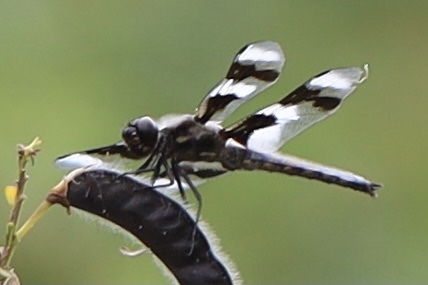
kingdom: Animalia
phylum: Arthropoda
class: Insecta
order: Odonata
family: Libellulidae
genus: Libellula
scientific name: Libellula forensis
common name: Eight-spotted skimmer
